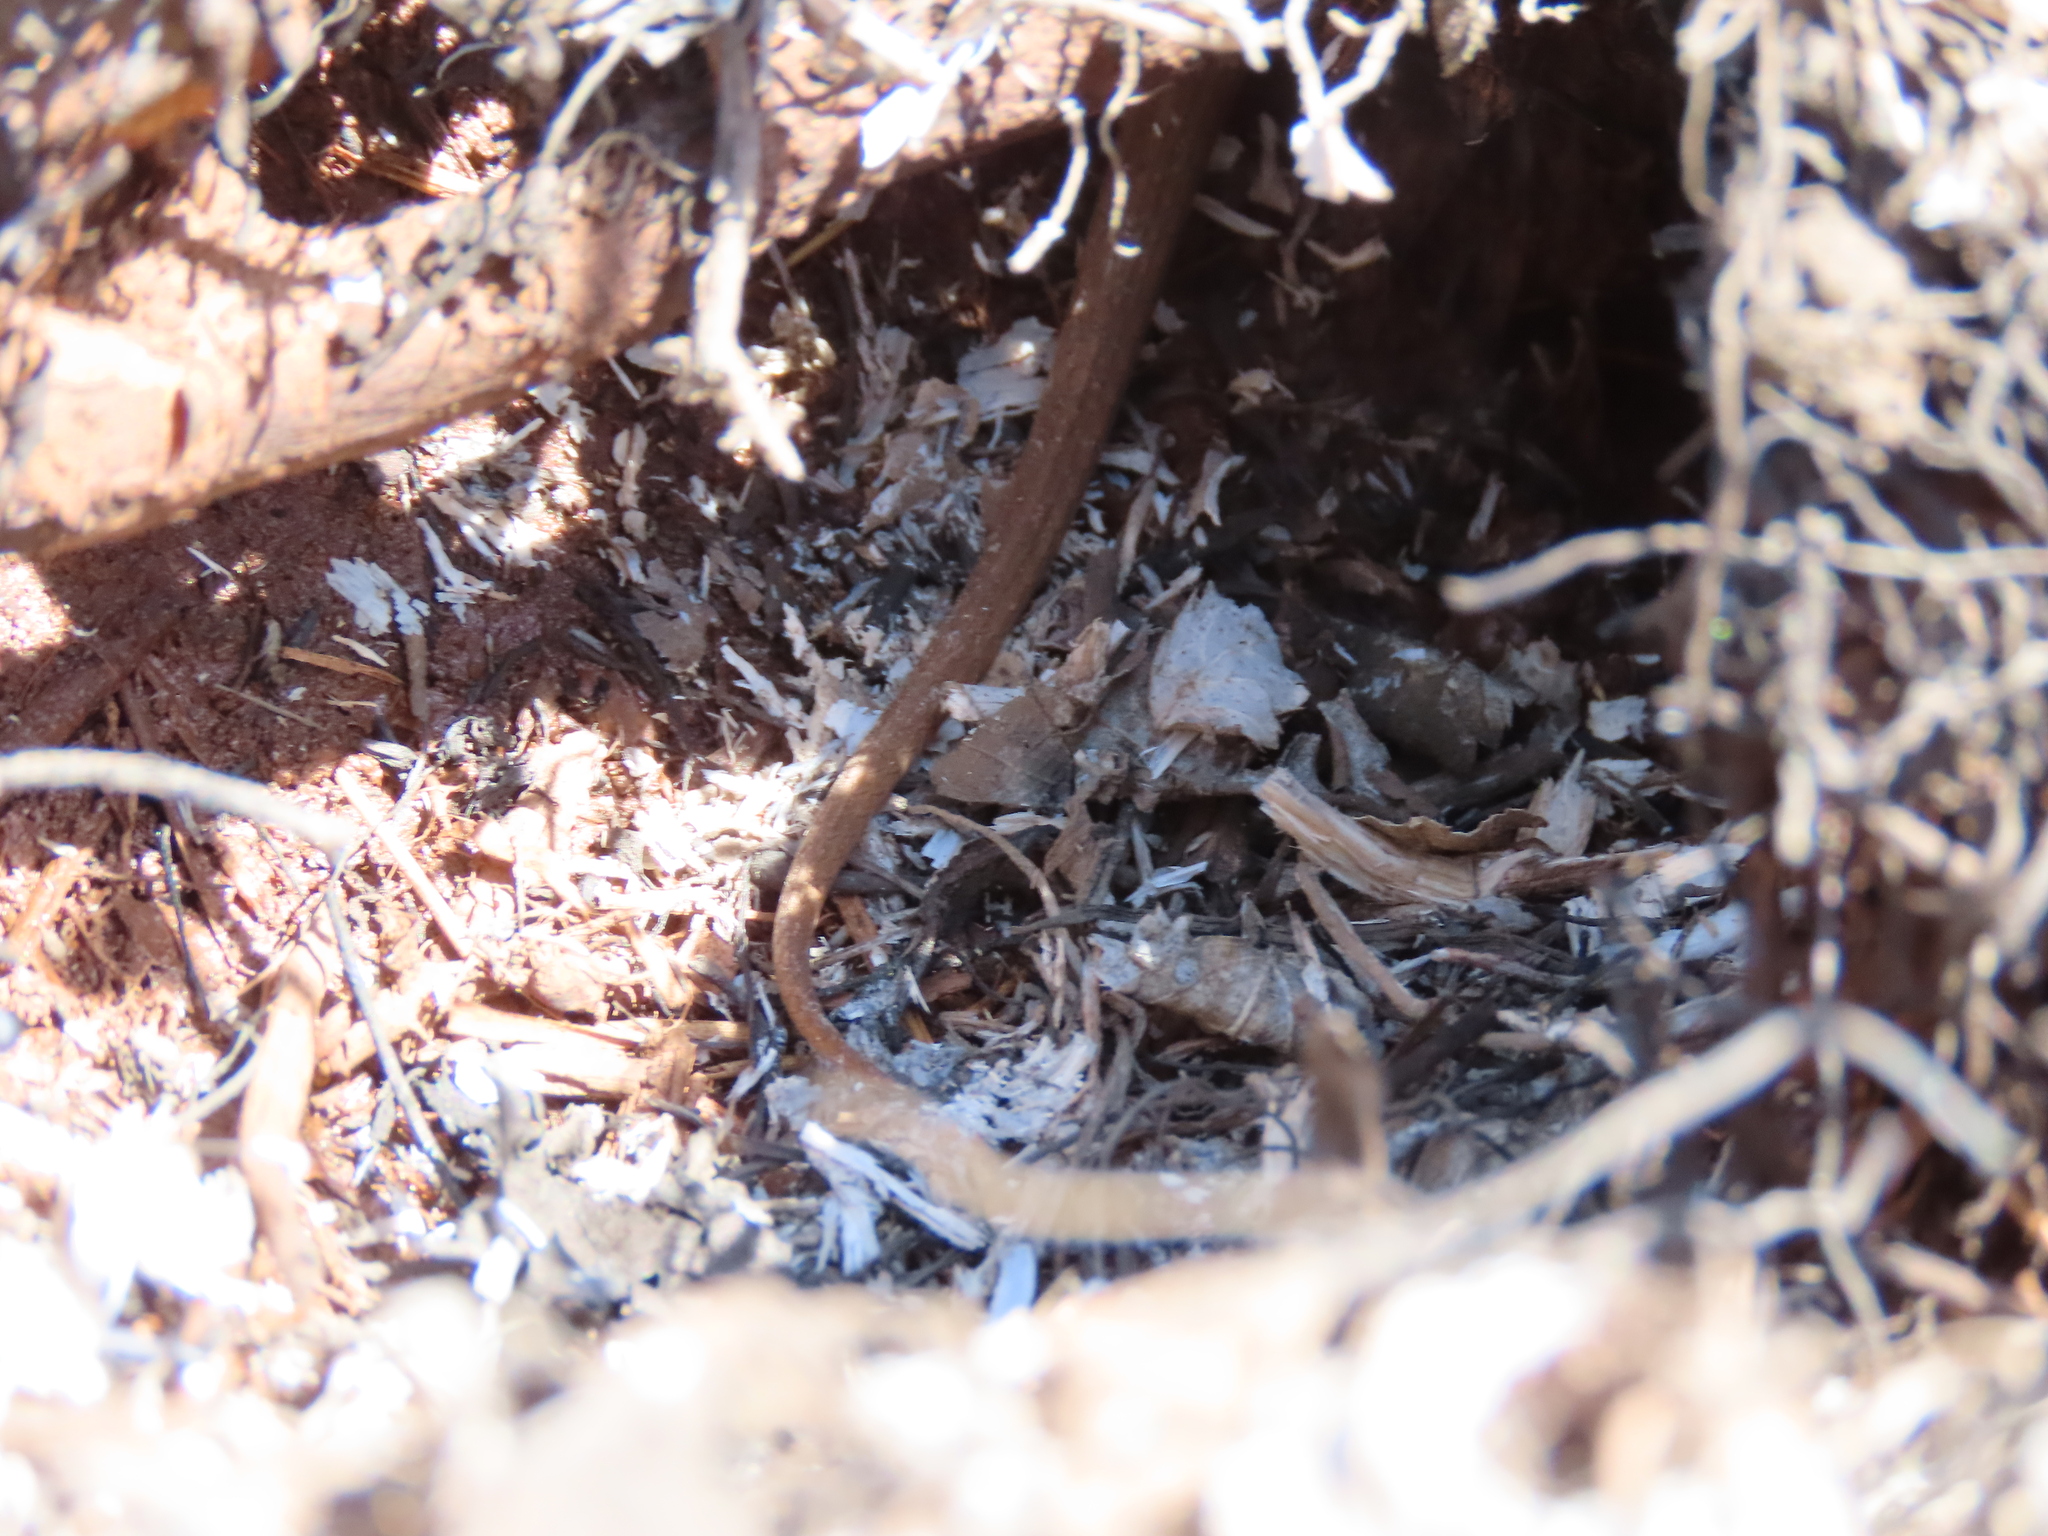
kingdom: Animalia
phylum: Chordata
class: Squamata
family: Colubridae
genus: Storeria
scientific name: Storeria dekayi
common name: (dekay’s) brown snake
